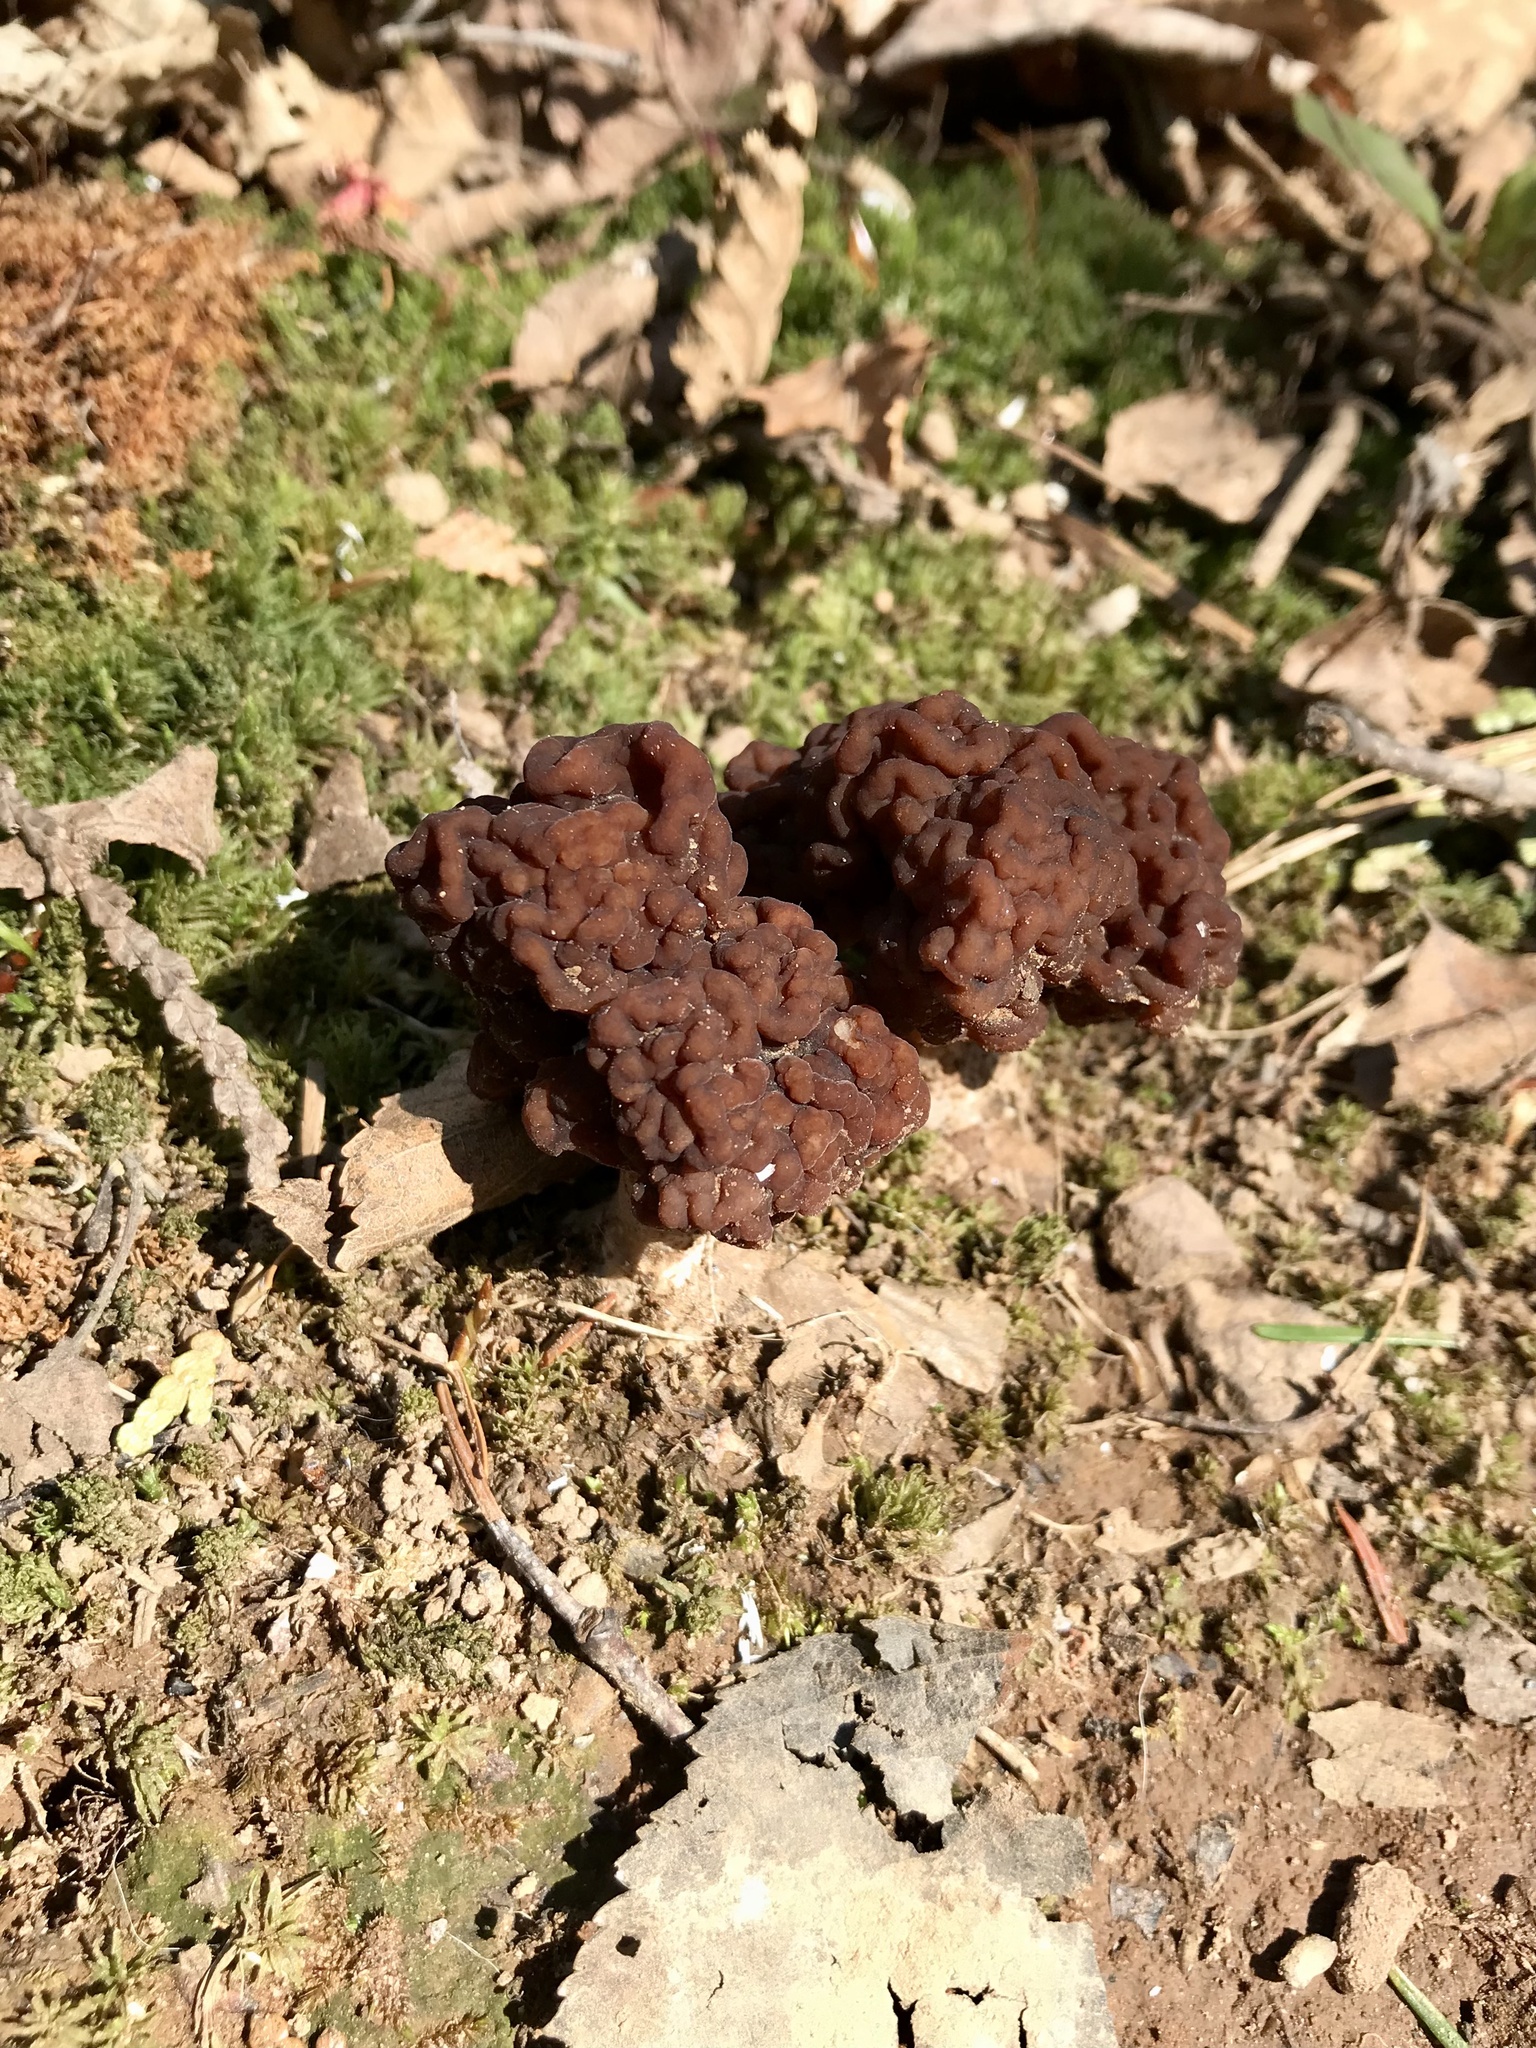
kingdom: Fungi
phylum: Ascomycota
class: Pezizomycetes
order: Pezizales
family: Discinaceae
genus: Gyromitra
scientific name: Gyromitra esculenta
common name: False morel
